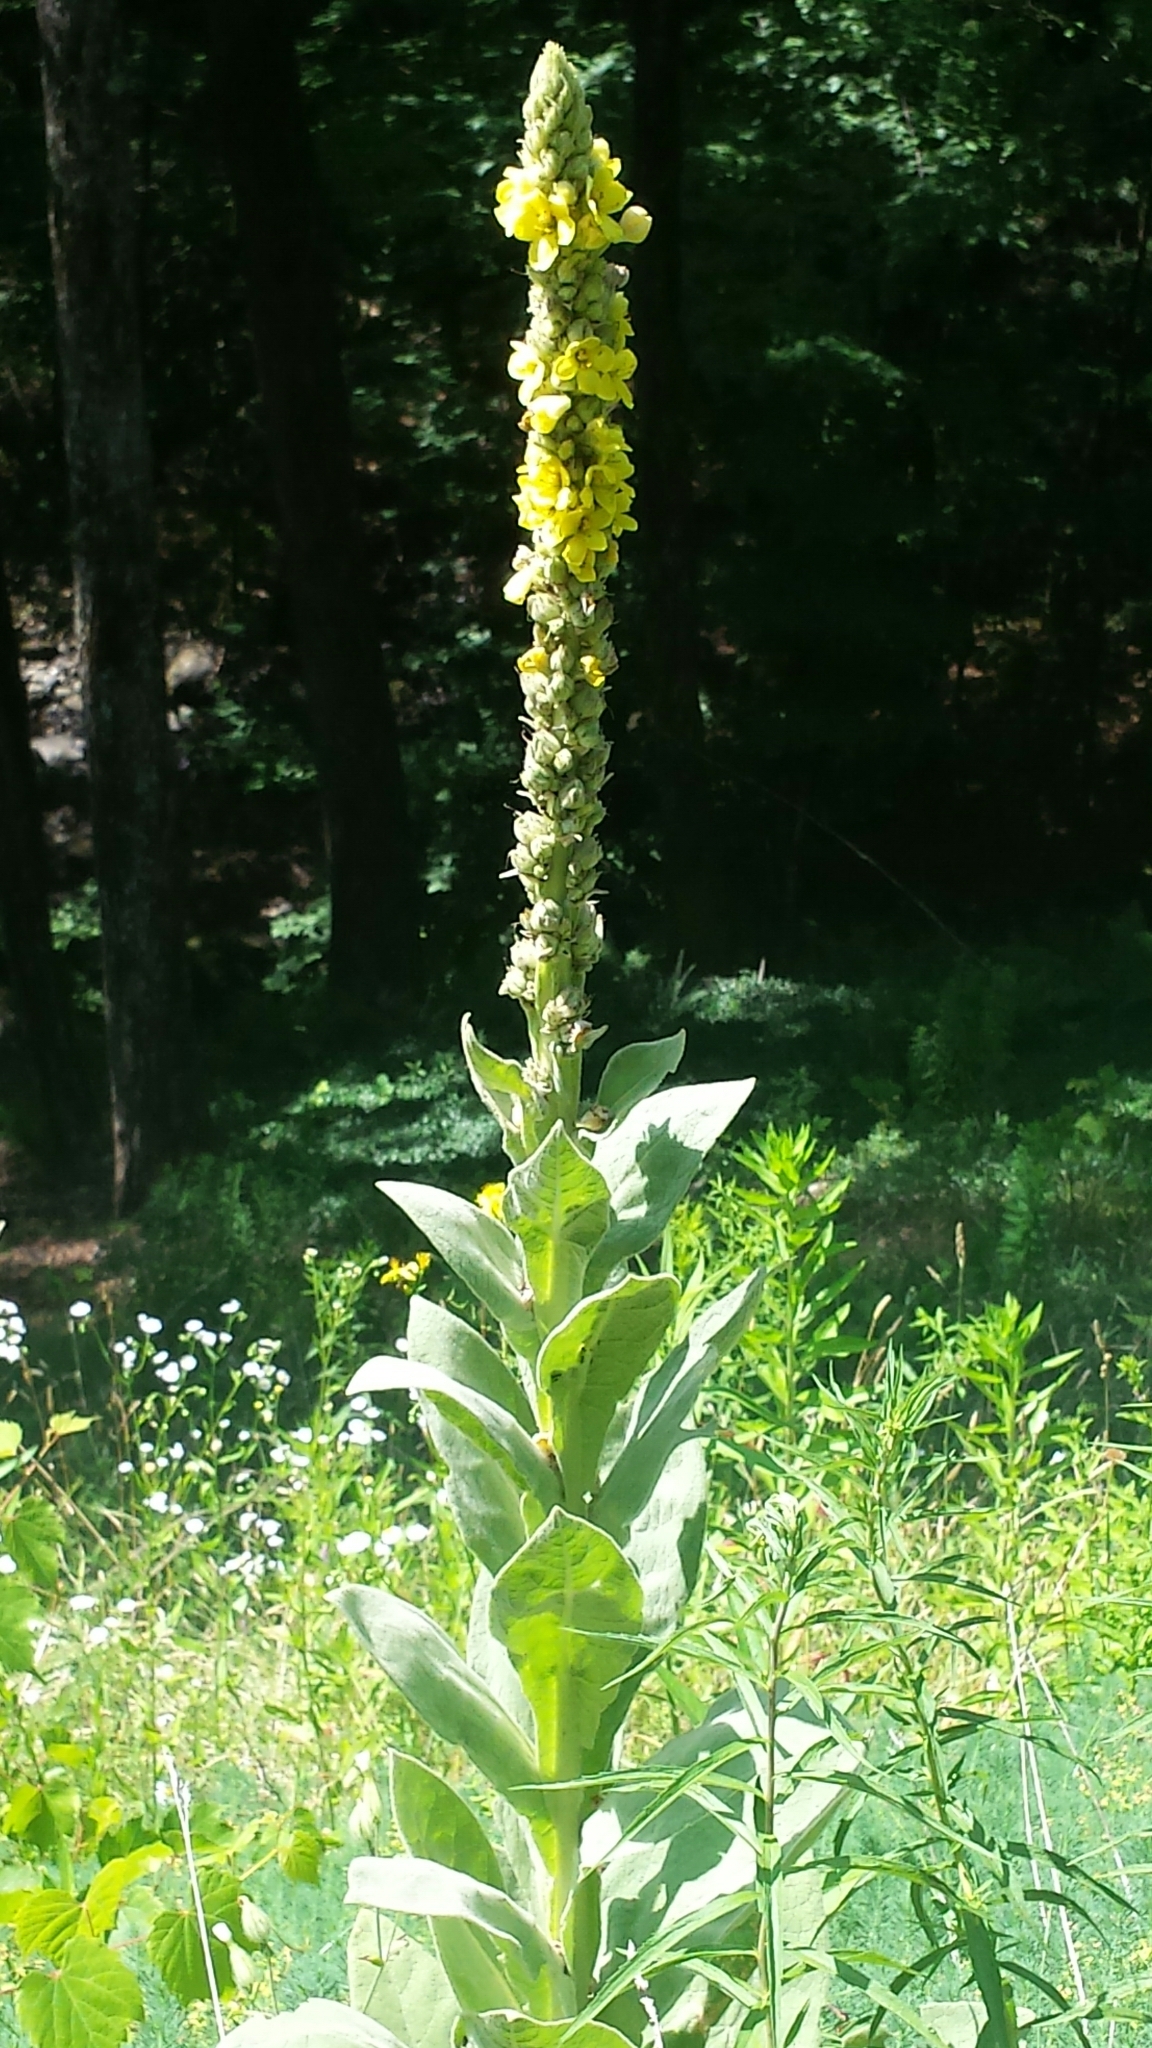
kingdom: Plantae
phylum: Tracheophyta
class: Magnoliopsida
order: Lamiales
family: Scrophulariaceae
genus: Verbascum
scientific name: Verbascum thapsus
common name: Common mullein
